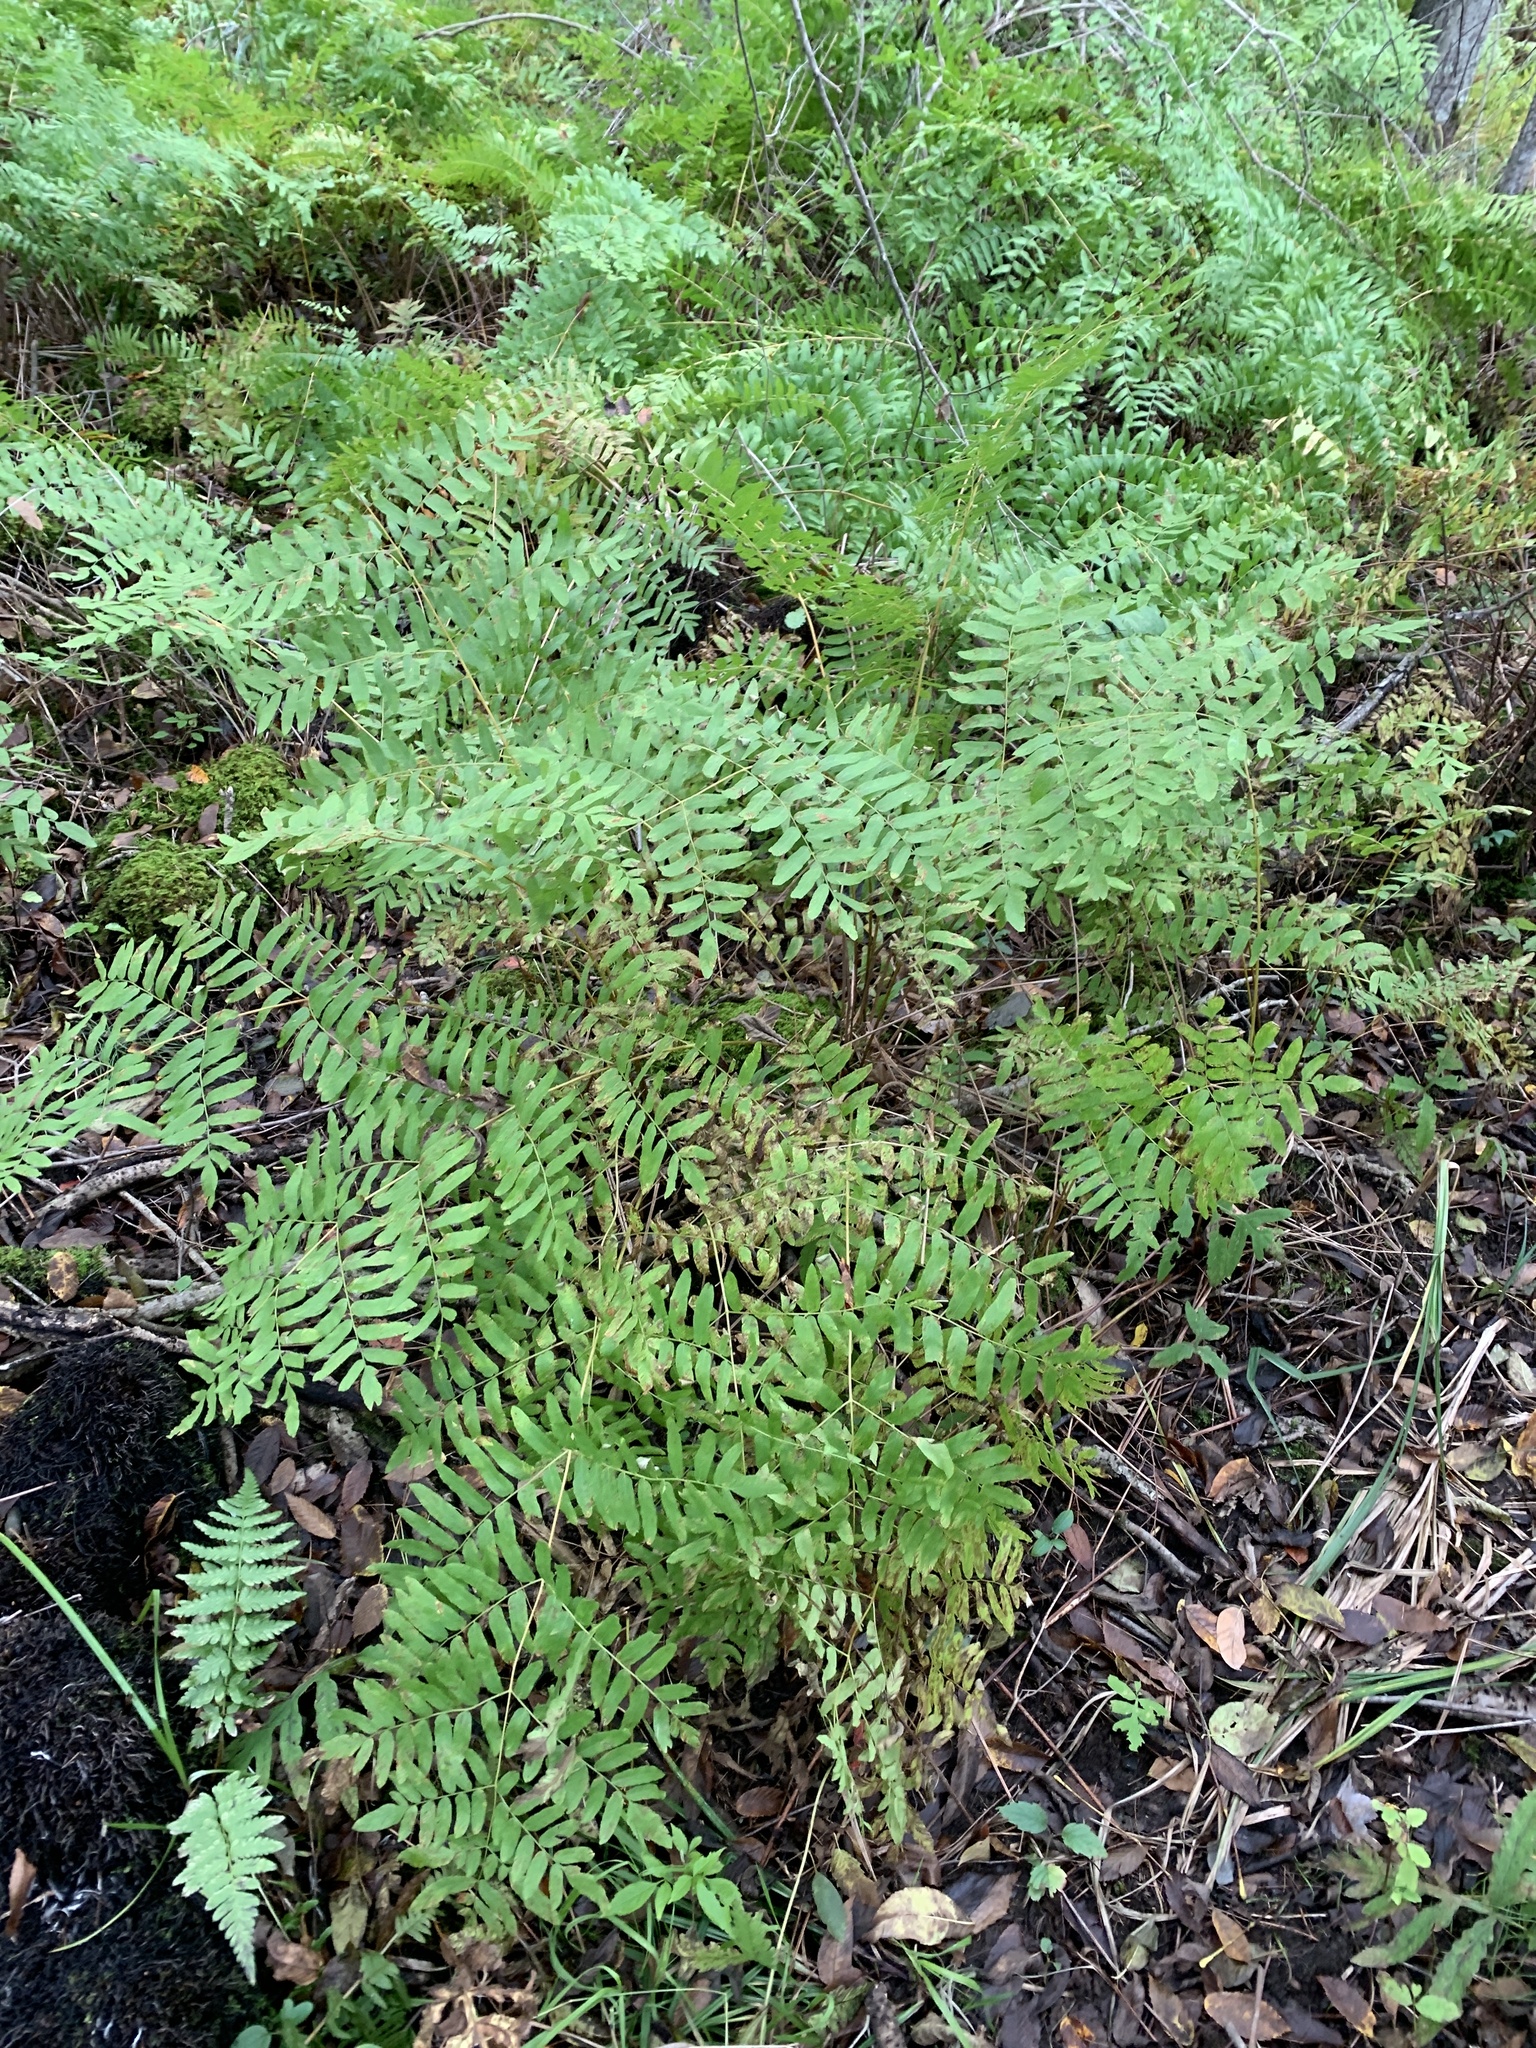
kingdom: Plantae
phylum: Tracheophyta
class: Polypodiopsida
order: Osmundales
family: Osmundaceae
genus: Osmunda
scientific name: Osmunda spectabilis
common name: American royal fern
